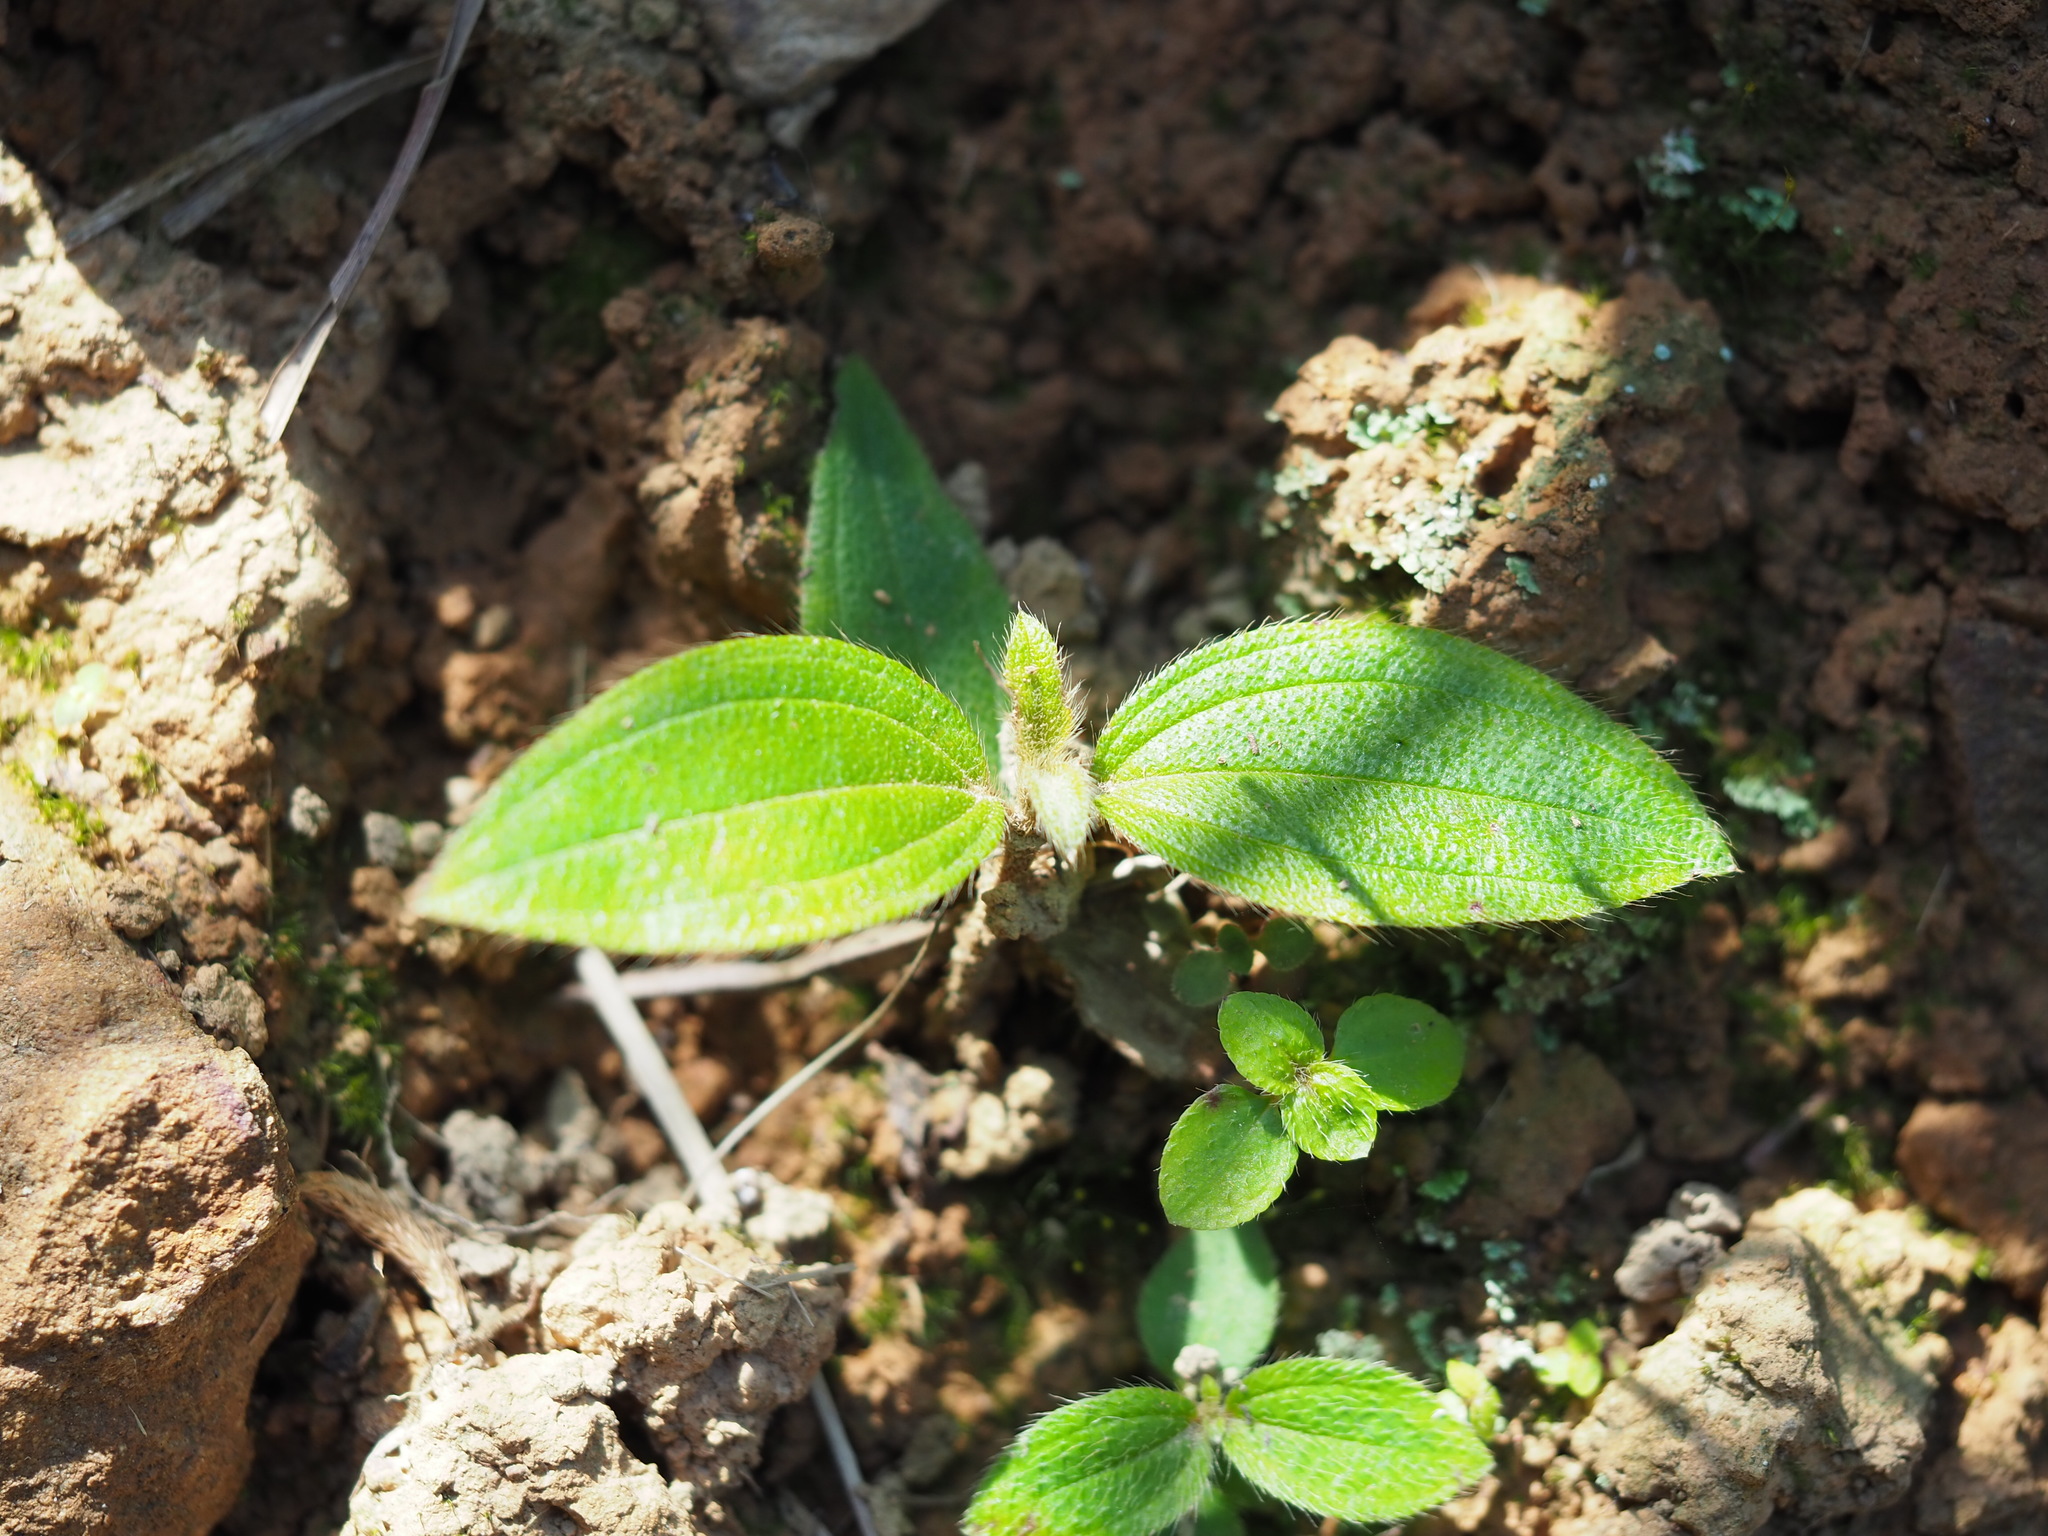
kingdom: Plantae
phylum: Tracheophyta
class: Magnoliopsida
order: Myrtales
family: Melastomataceae
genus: Melastoma
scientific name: Melastoma malabathricum
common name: Indian-rhododendron
